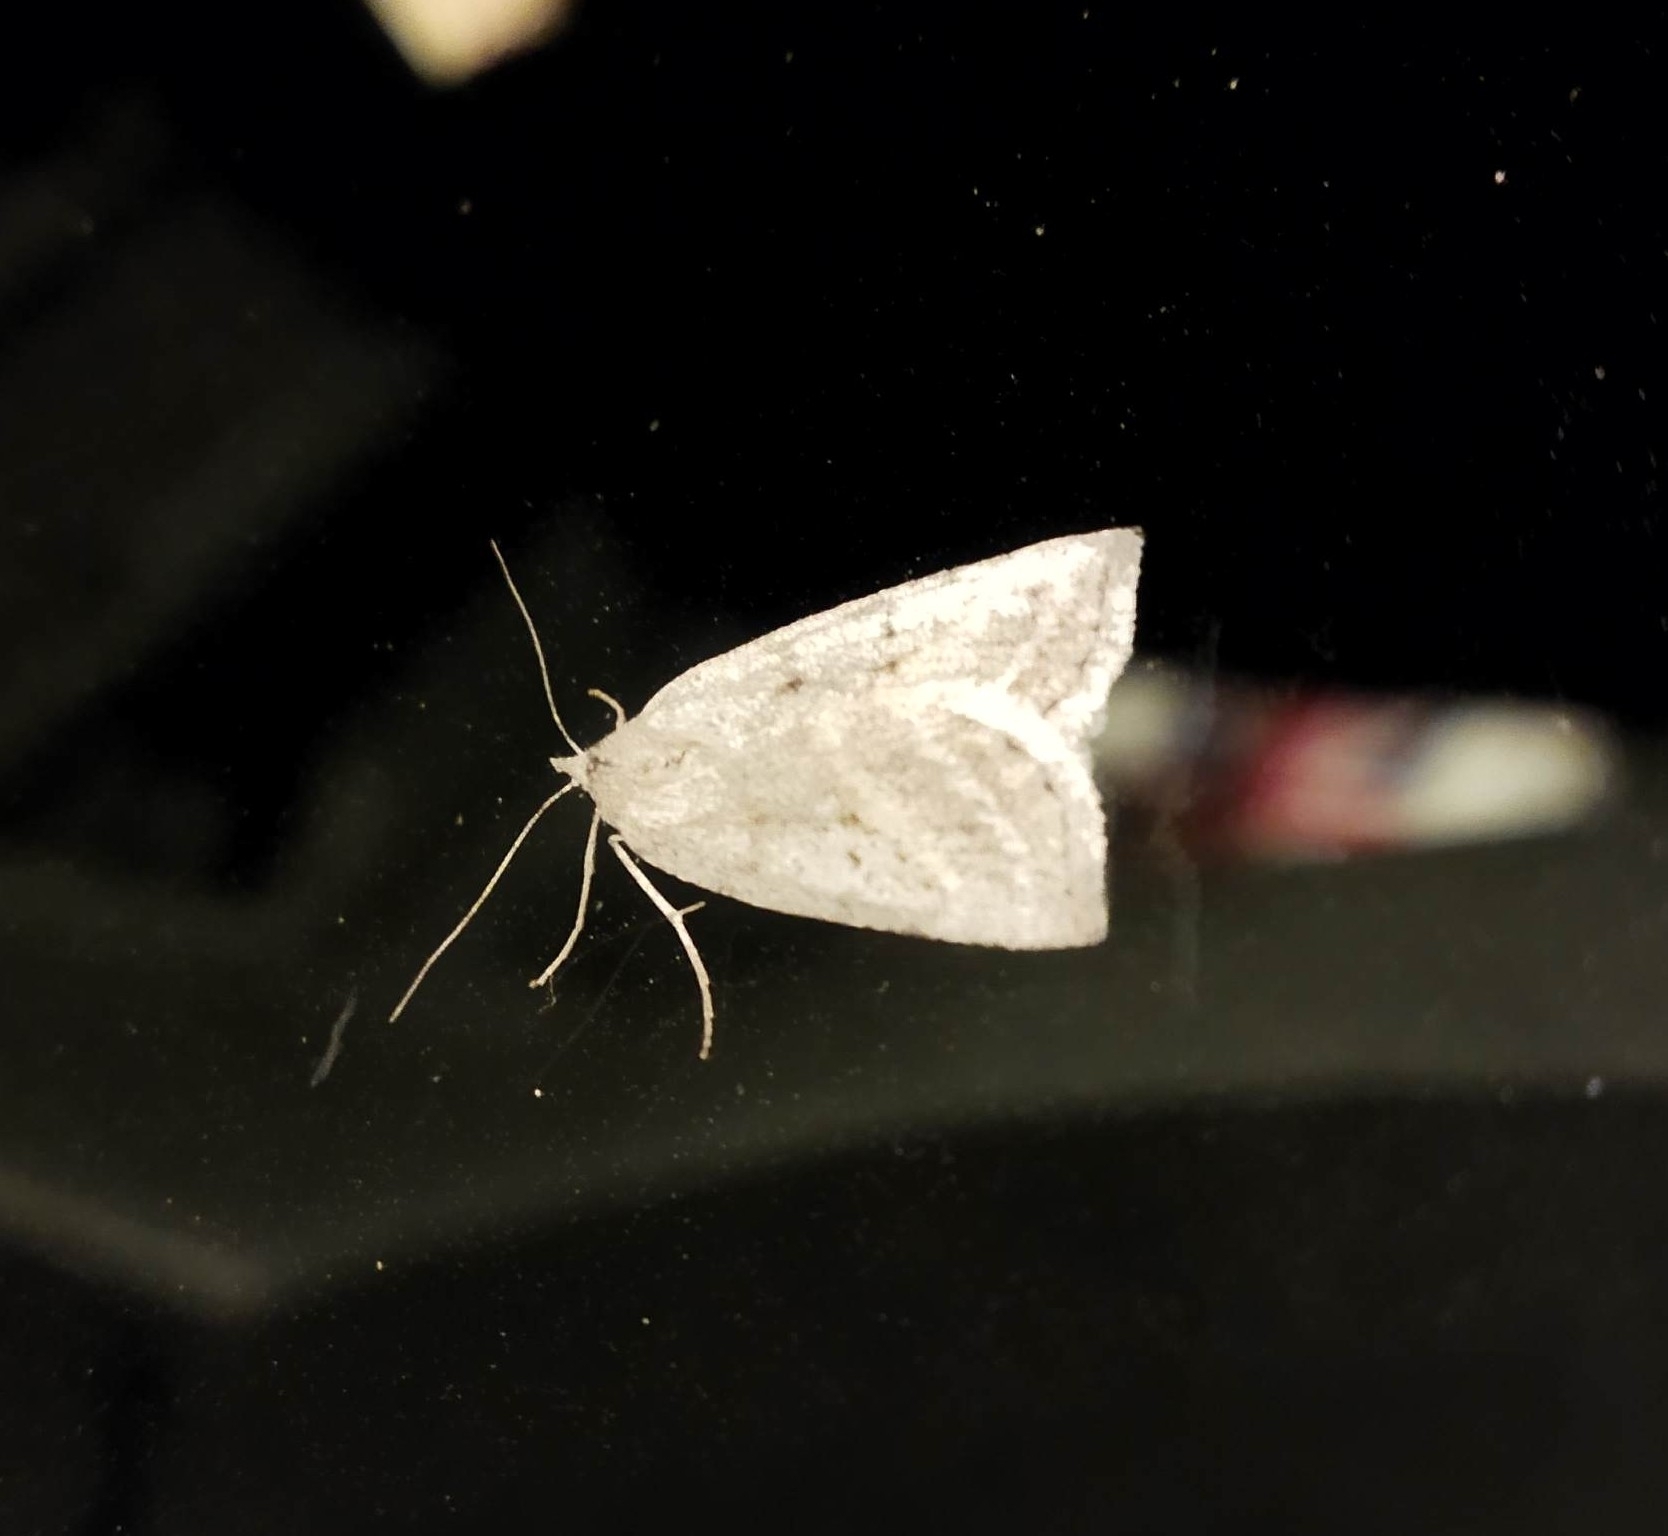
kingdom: Animalia
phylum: Arthropoda
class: Insecta
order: Lepidoptera
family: Geometridae
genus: Chemerina
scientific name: Chemerina caliginearia
